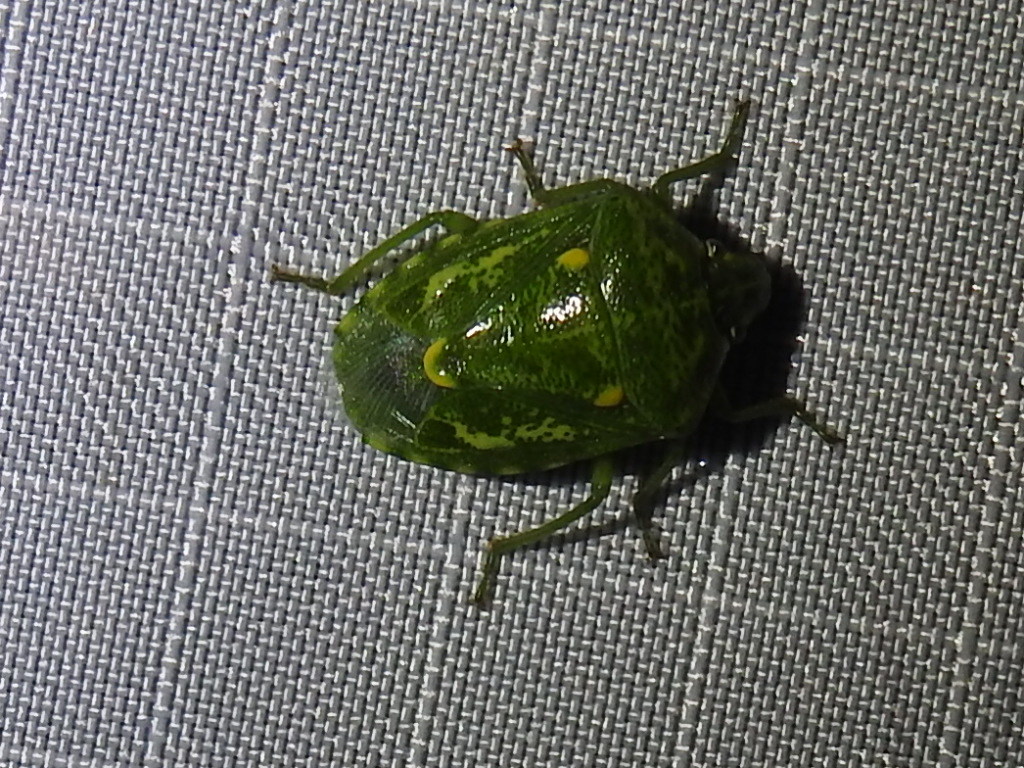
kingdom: Animalia
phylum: Arthropoda
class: Insecta
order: Hemiptera
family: Pentatomidae
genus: Banasa
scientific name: Banasa euchlora
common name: Cedar berry bug
